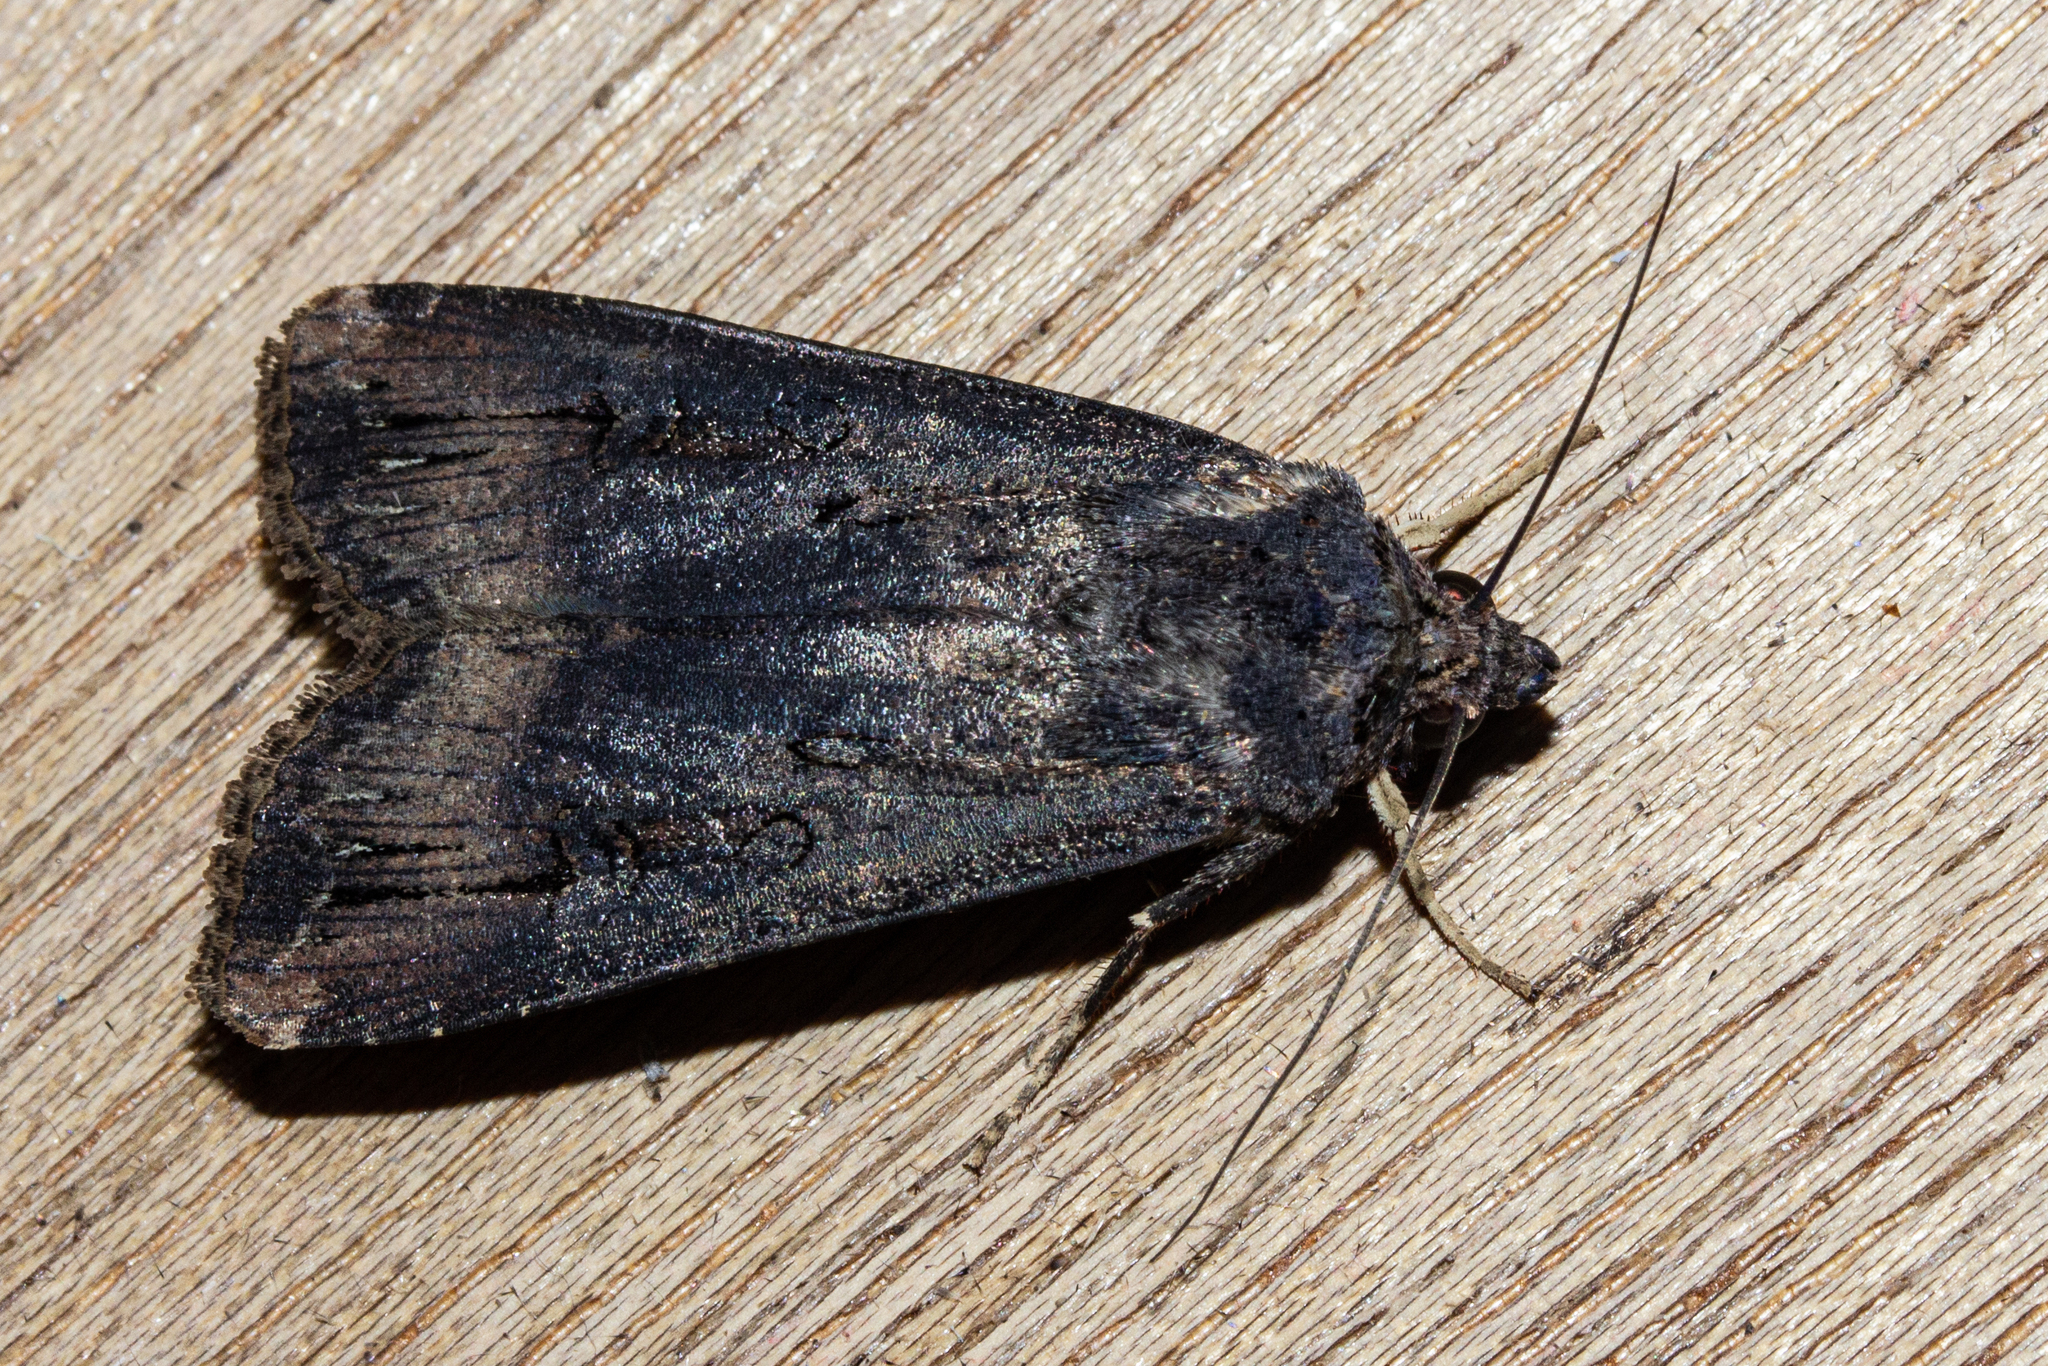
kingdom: Animalia
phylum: Arthropoda
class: Insecta
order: Lepidoptera
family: Noctuidae
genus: Agrotis
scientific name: Agrotis ipsilon
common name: Dark sword-grass
